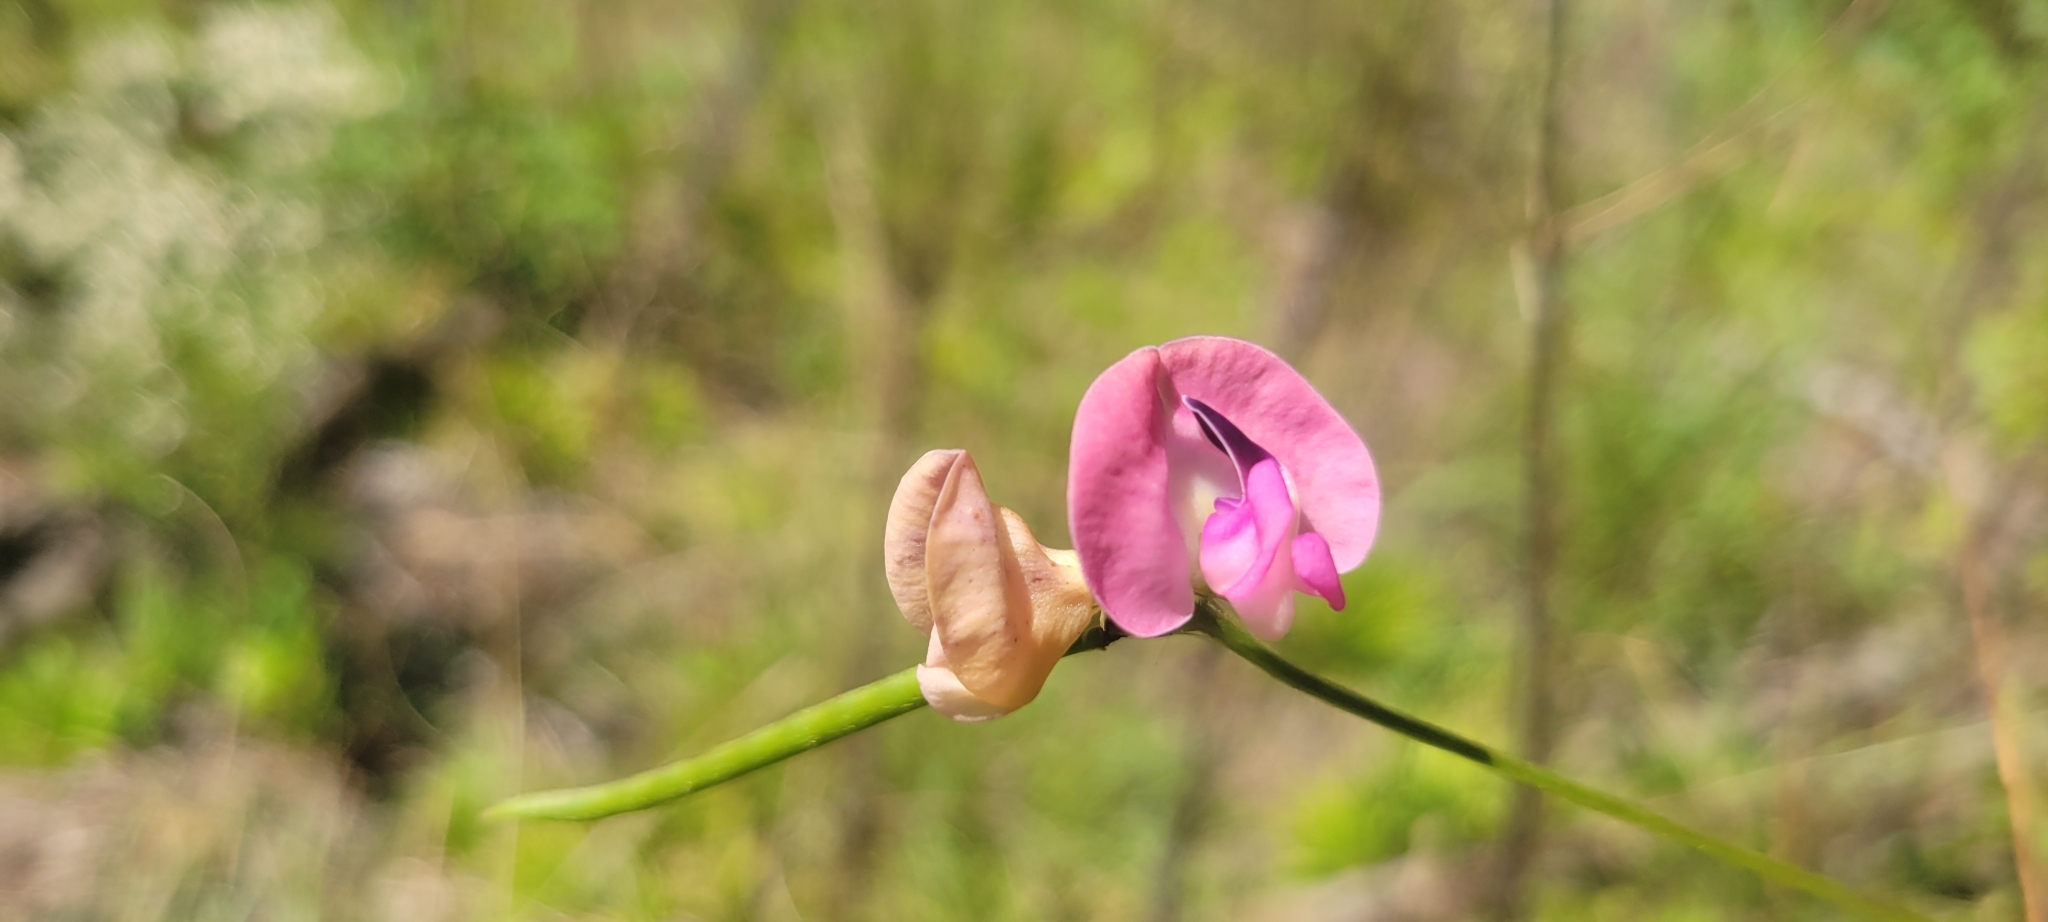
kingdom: Plantae
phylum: Tracheophyta
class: Magnoliopsida
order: Fabales
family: Fabaceae
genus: Strophostyles
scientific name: Strophostyles umbellata
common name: Perennial wild bean
